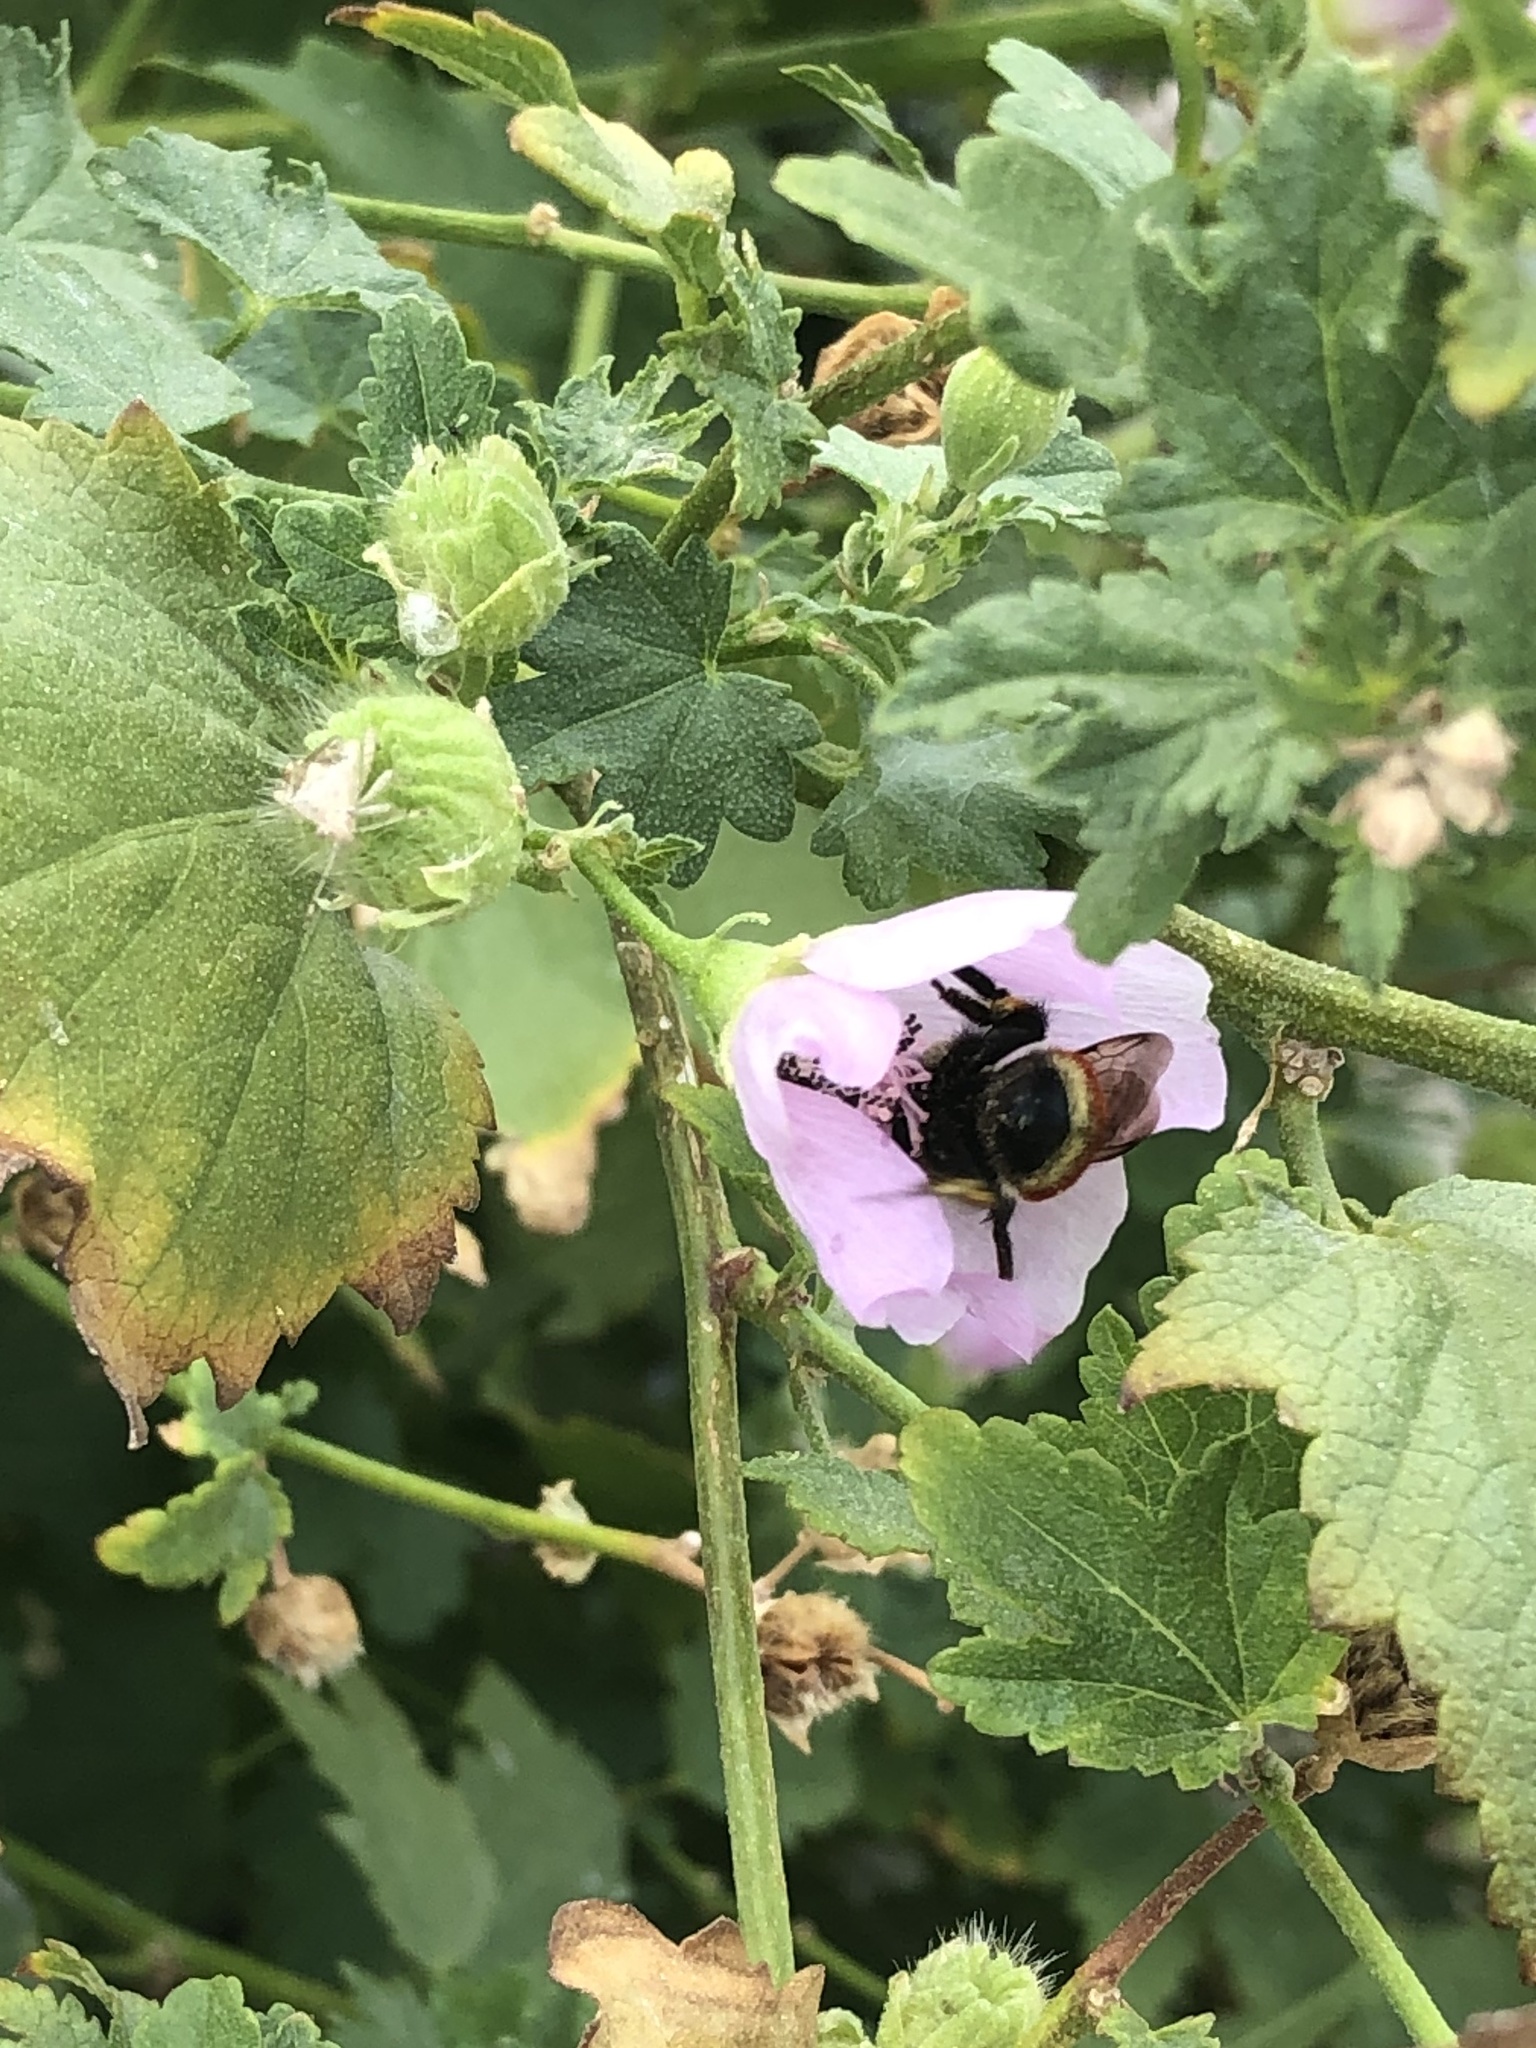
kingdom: Animalia
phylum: Arthropoda
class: Insecta
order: Hymenoptera
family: Apidae
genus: Bombus
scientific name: Bombus huntii
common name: Hunt bumble bee
